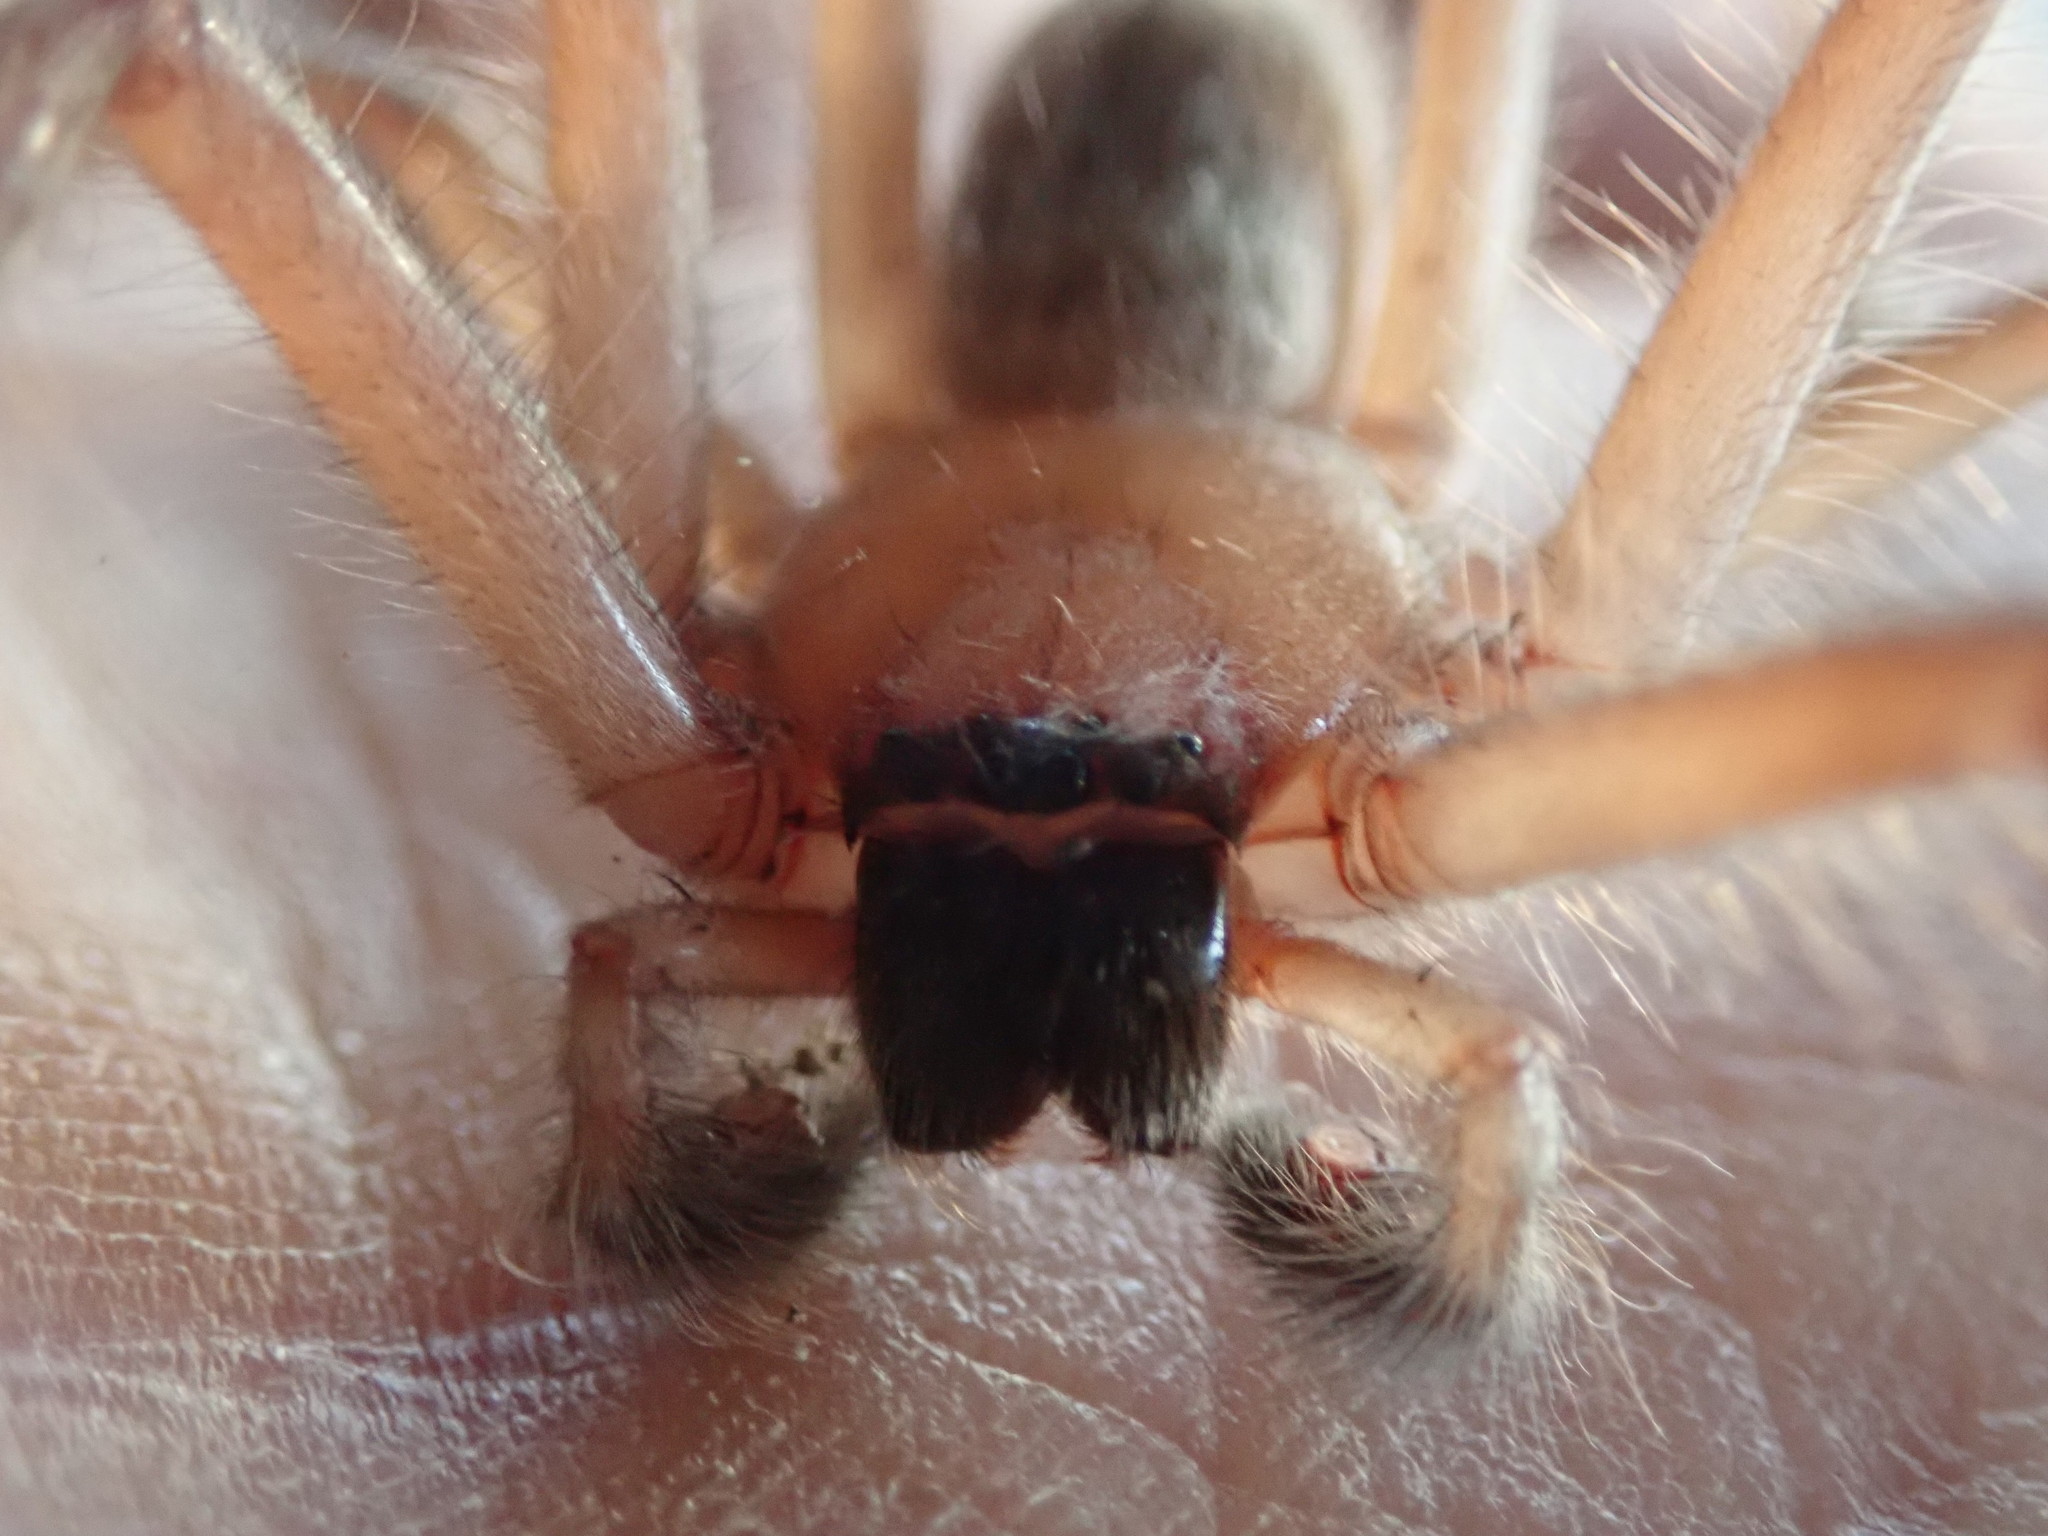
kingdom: Animalia
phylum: Arthropoda
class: Arachnida
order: Araneae
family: Sparassidae
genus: Delena
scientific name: Delena cancerides
